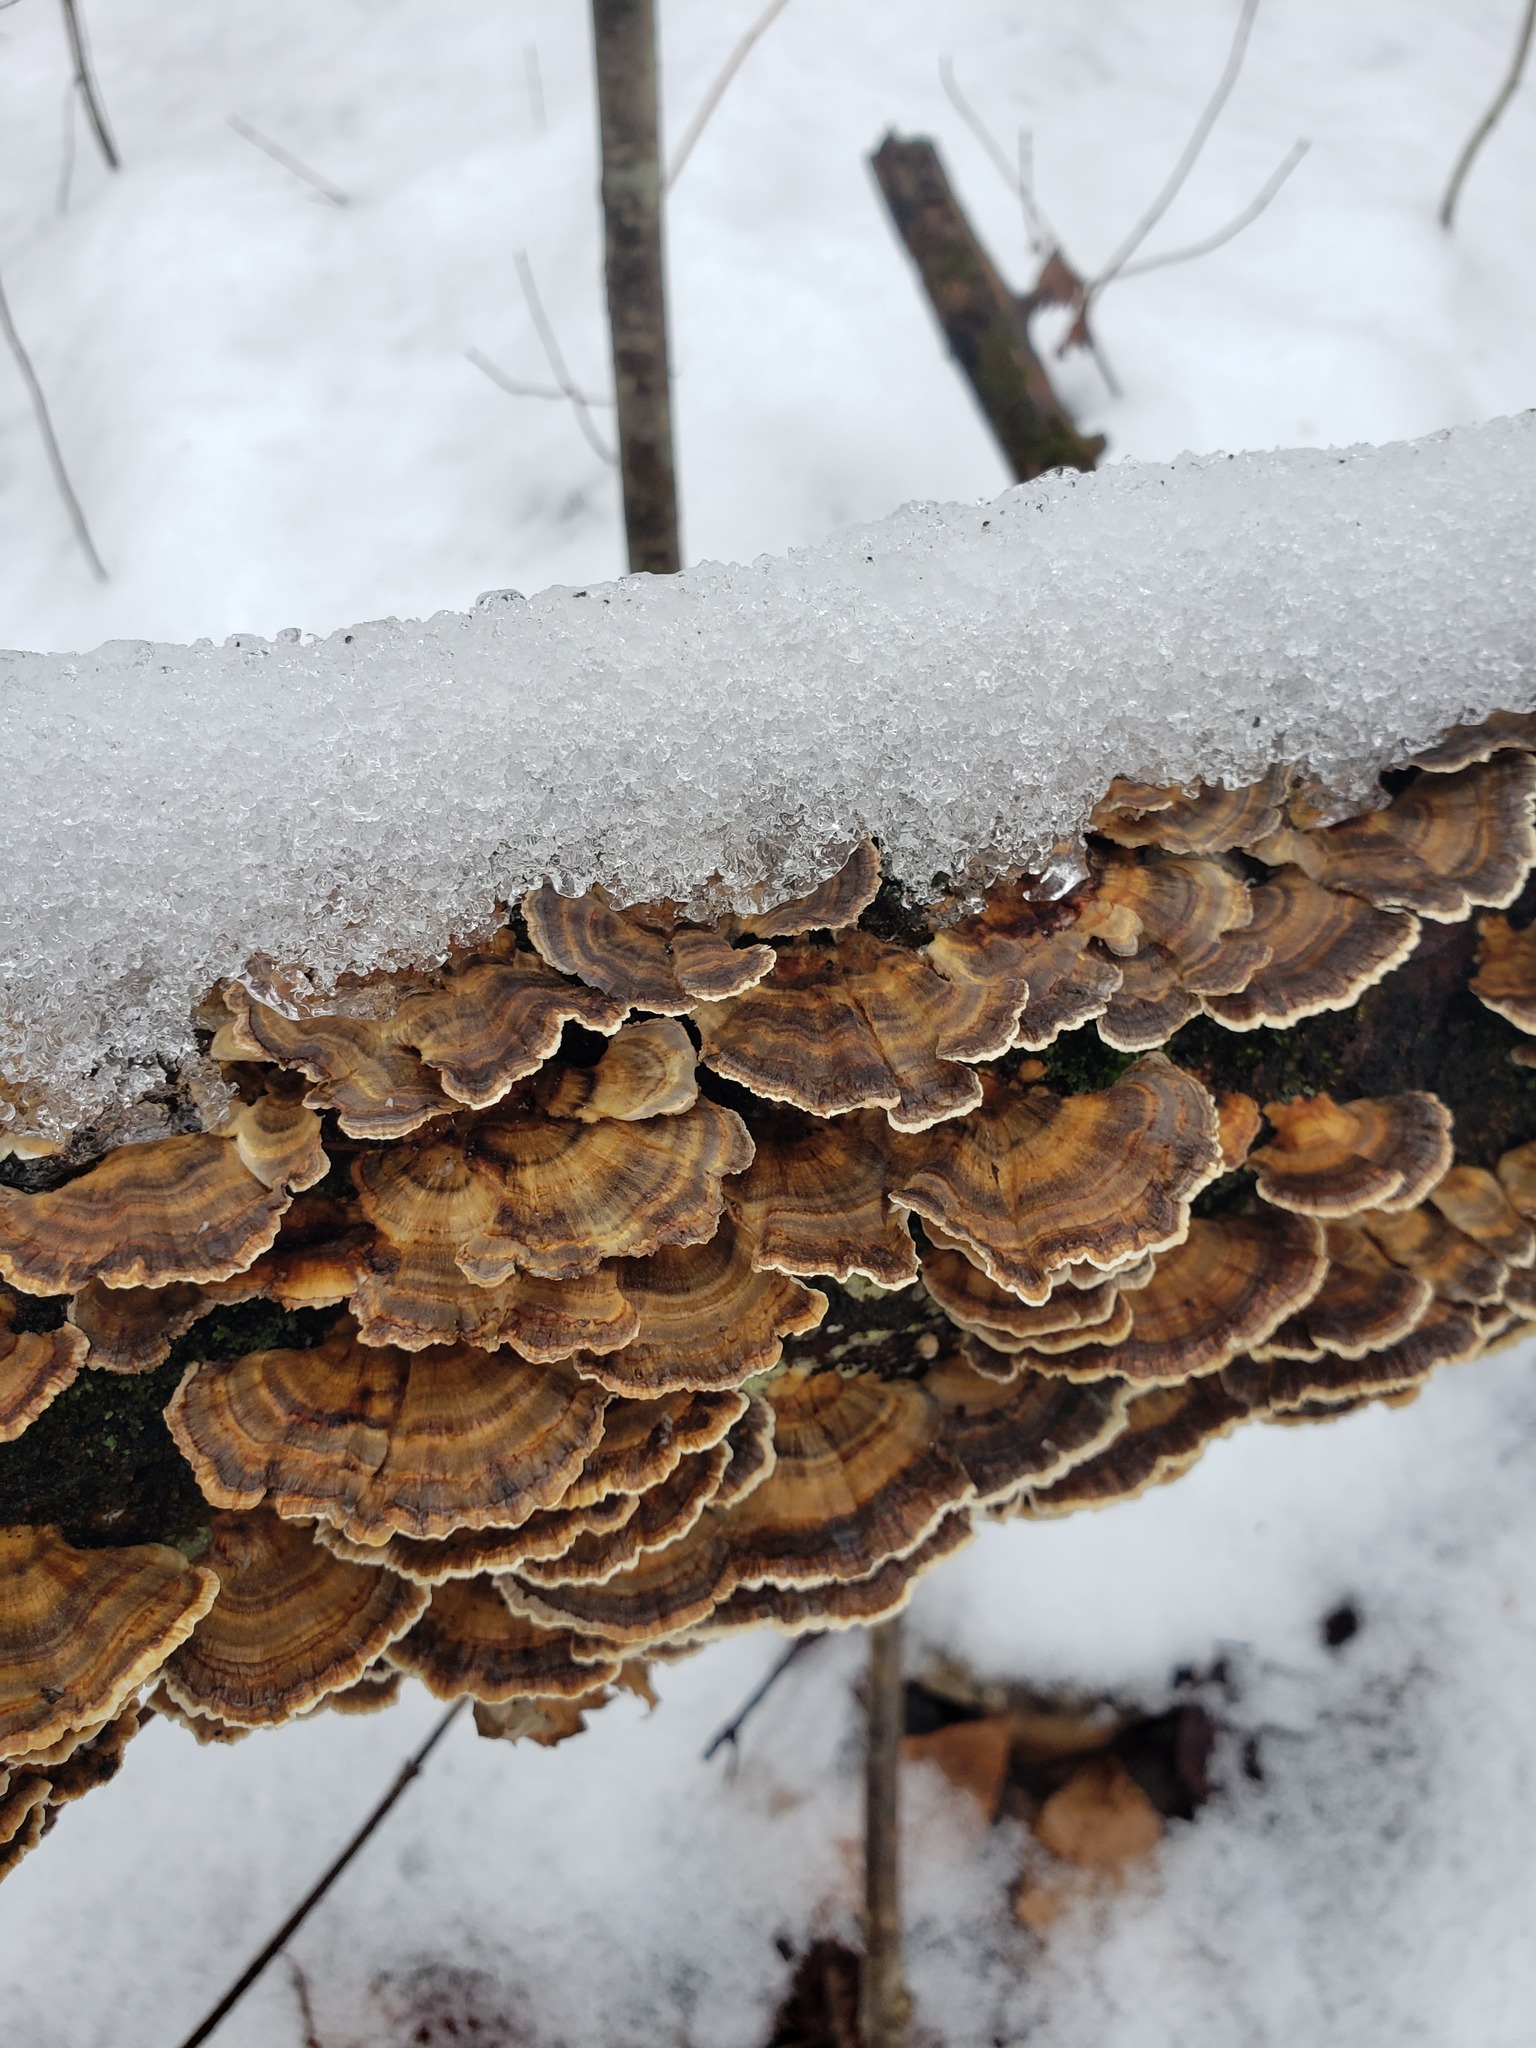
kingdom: Fungi
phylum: Basidiomycota
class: Agaricomycetes
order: Polyporales
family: Polyporaceae
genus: Trametes
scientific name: Trametes versicolor
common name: Turkeytail
